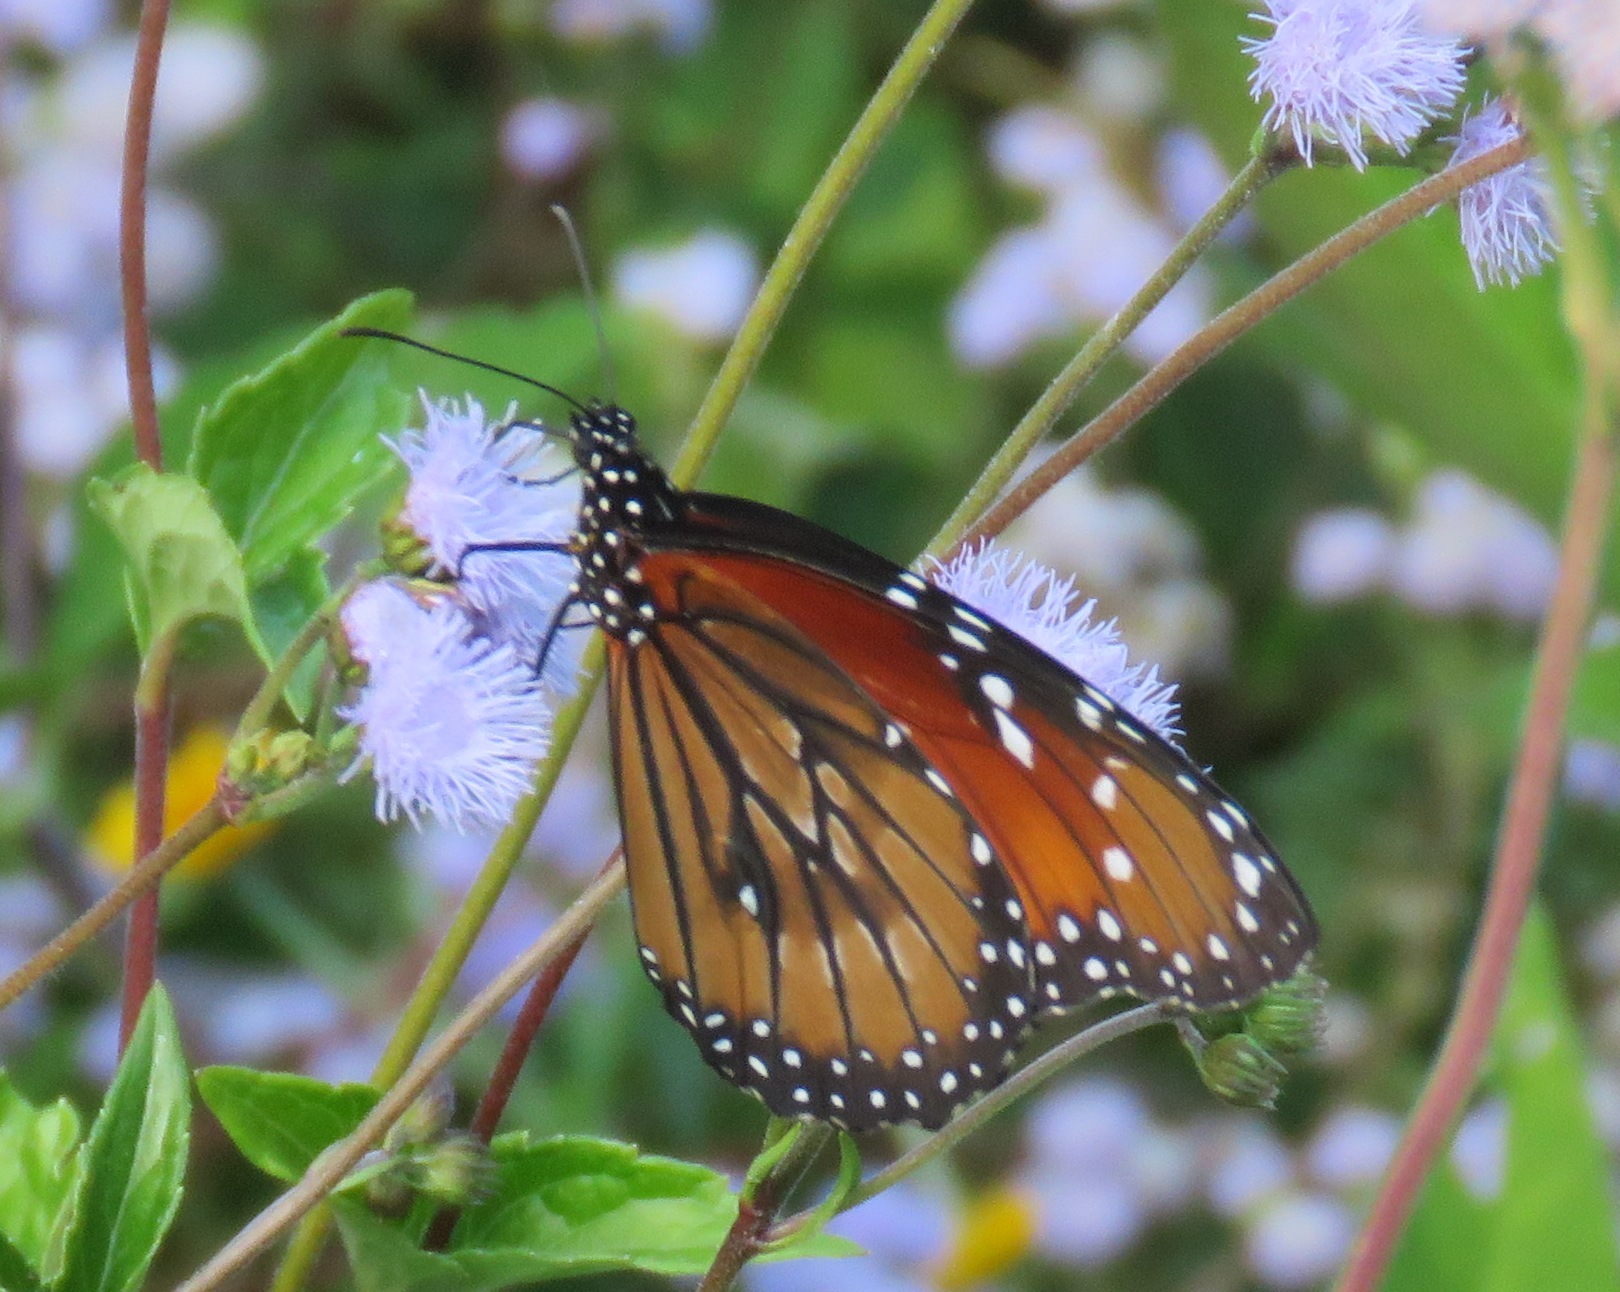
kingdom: Animalia
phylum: Arthropoda
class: Insecta
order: Lepidoptera
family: Nymphalidae
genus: Danaus
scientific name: Danaus eresimus
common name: Soldier
